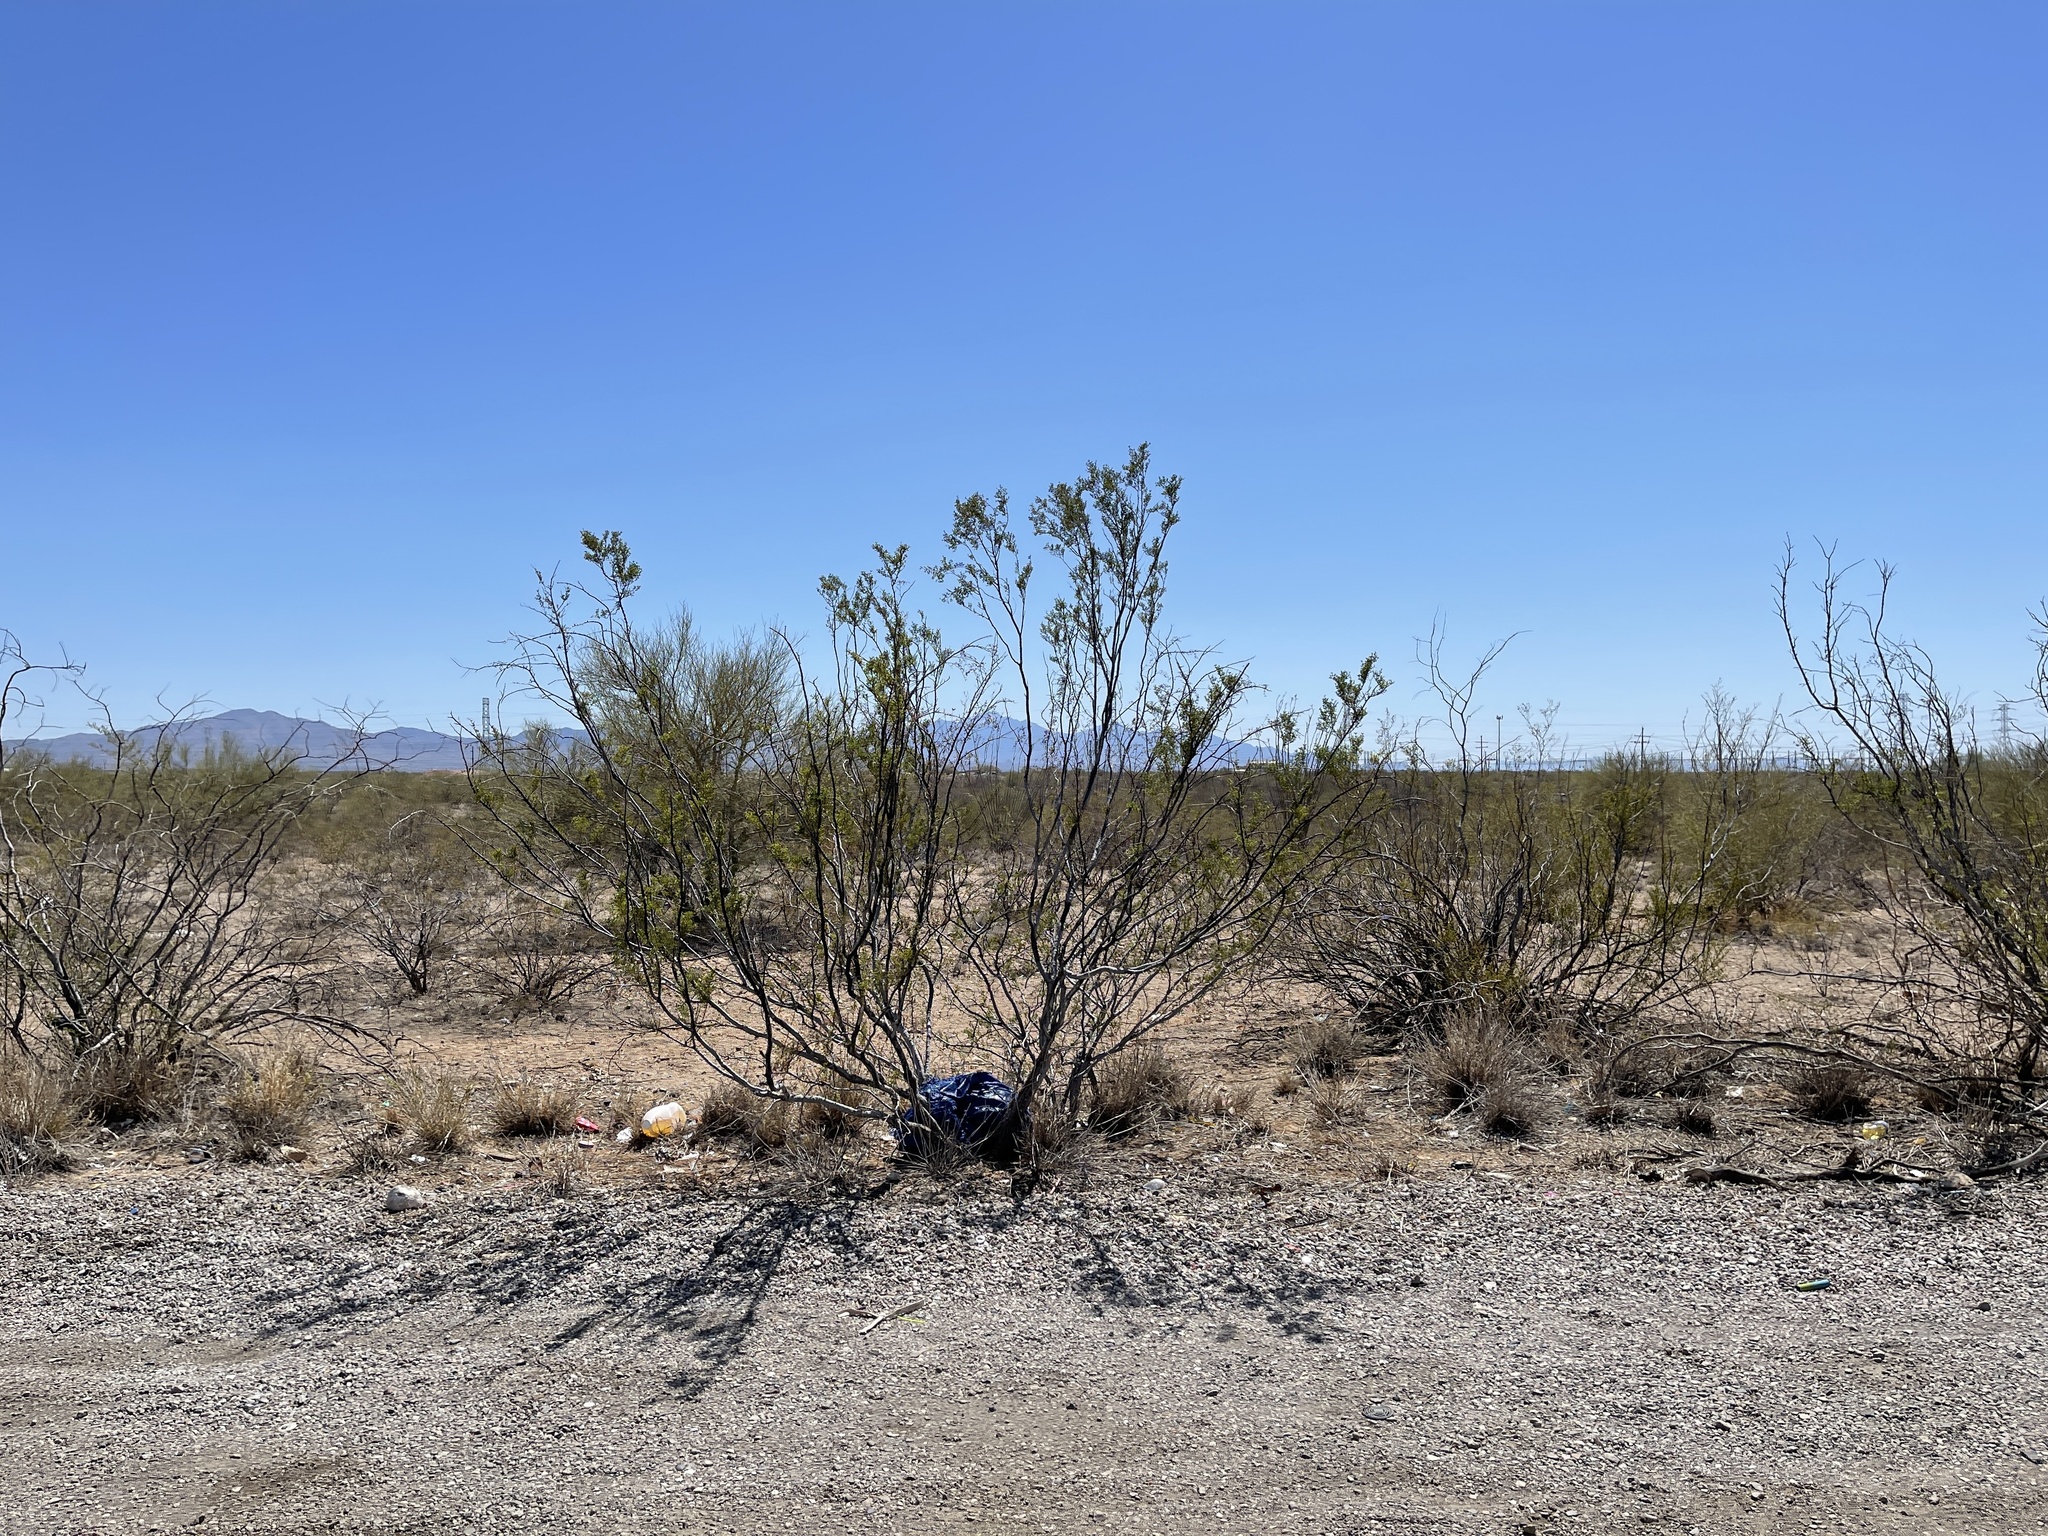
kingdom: Plantae
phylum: Tracheophyta
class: Magnoliopsida
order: Zygophyllales
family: Zygophyllaceae
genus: Larrea
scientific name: Larrea tridentata
